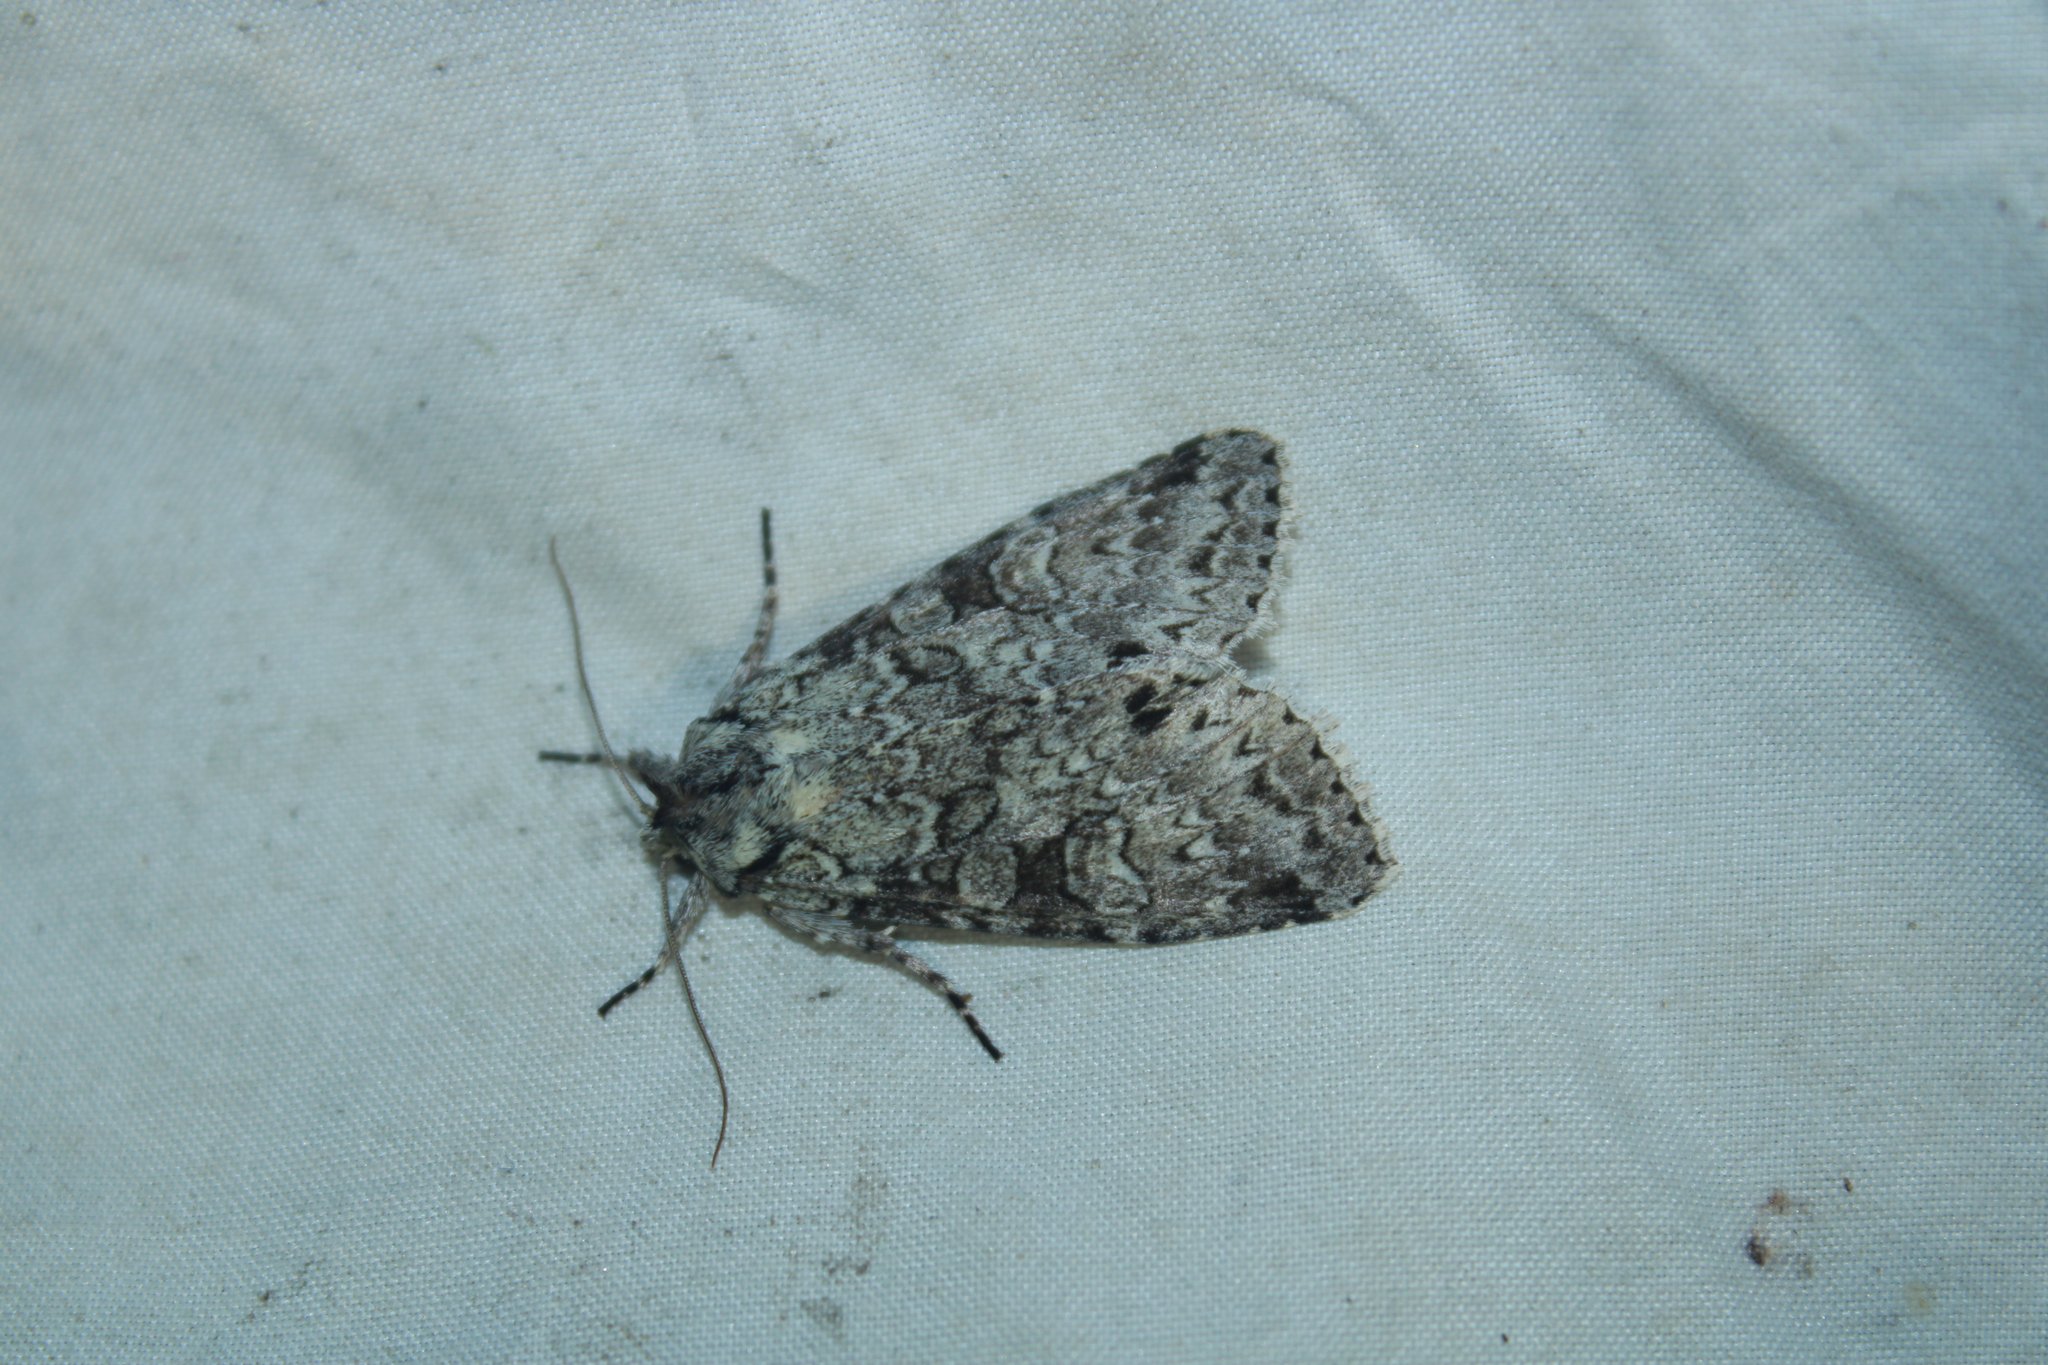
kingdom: Animalia
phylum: Arthropoda
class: Insecta
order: Lepidoptera
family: Noctuidae
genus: Polia
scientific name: Polia imbrifera
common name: Cloudy arches moth
